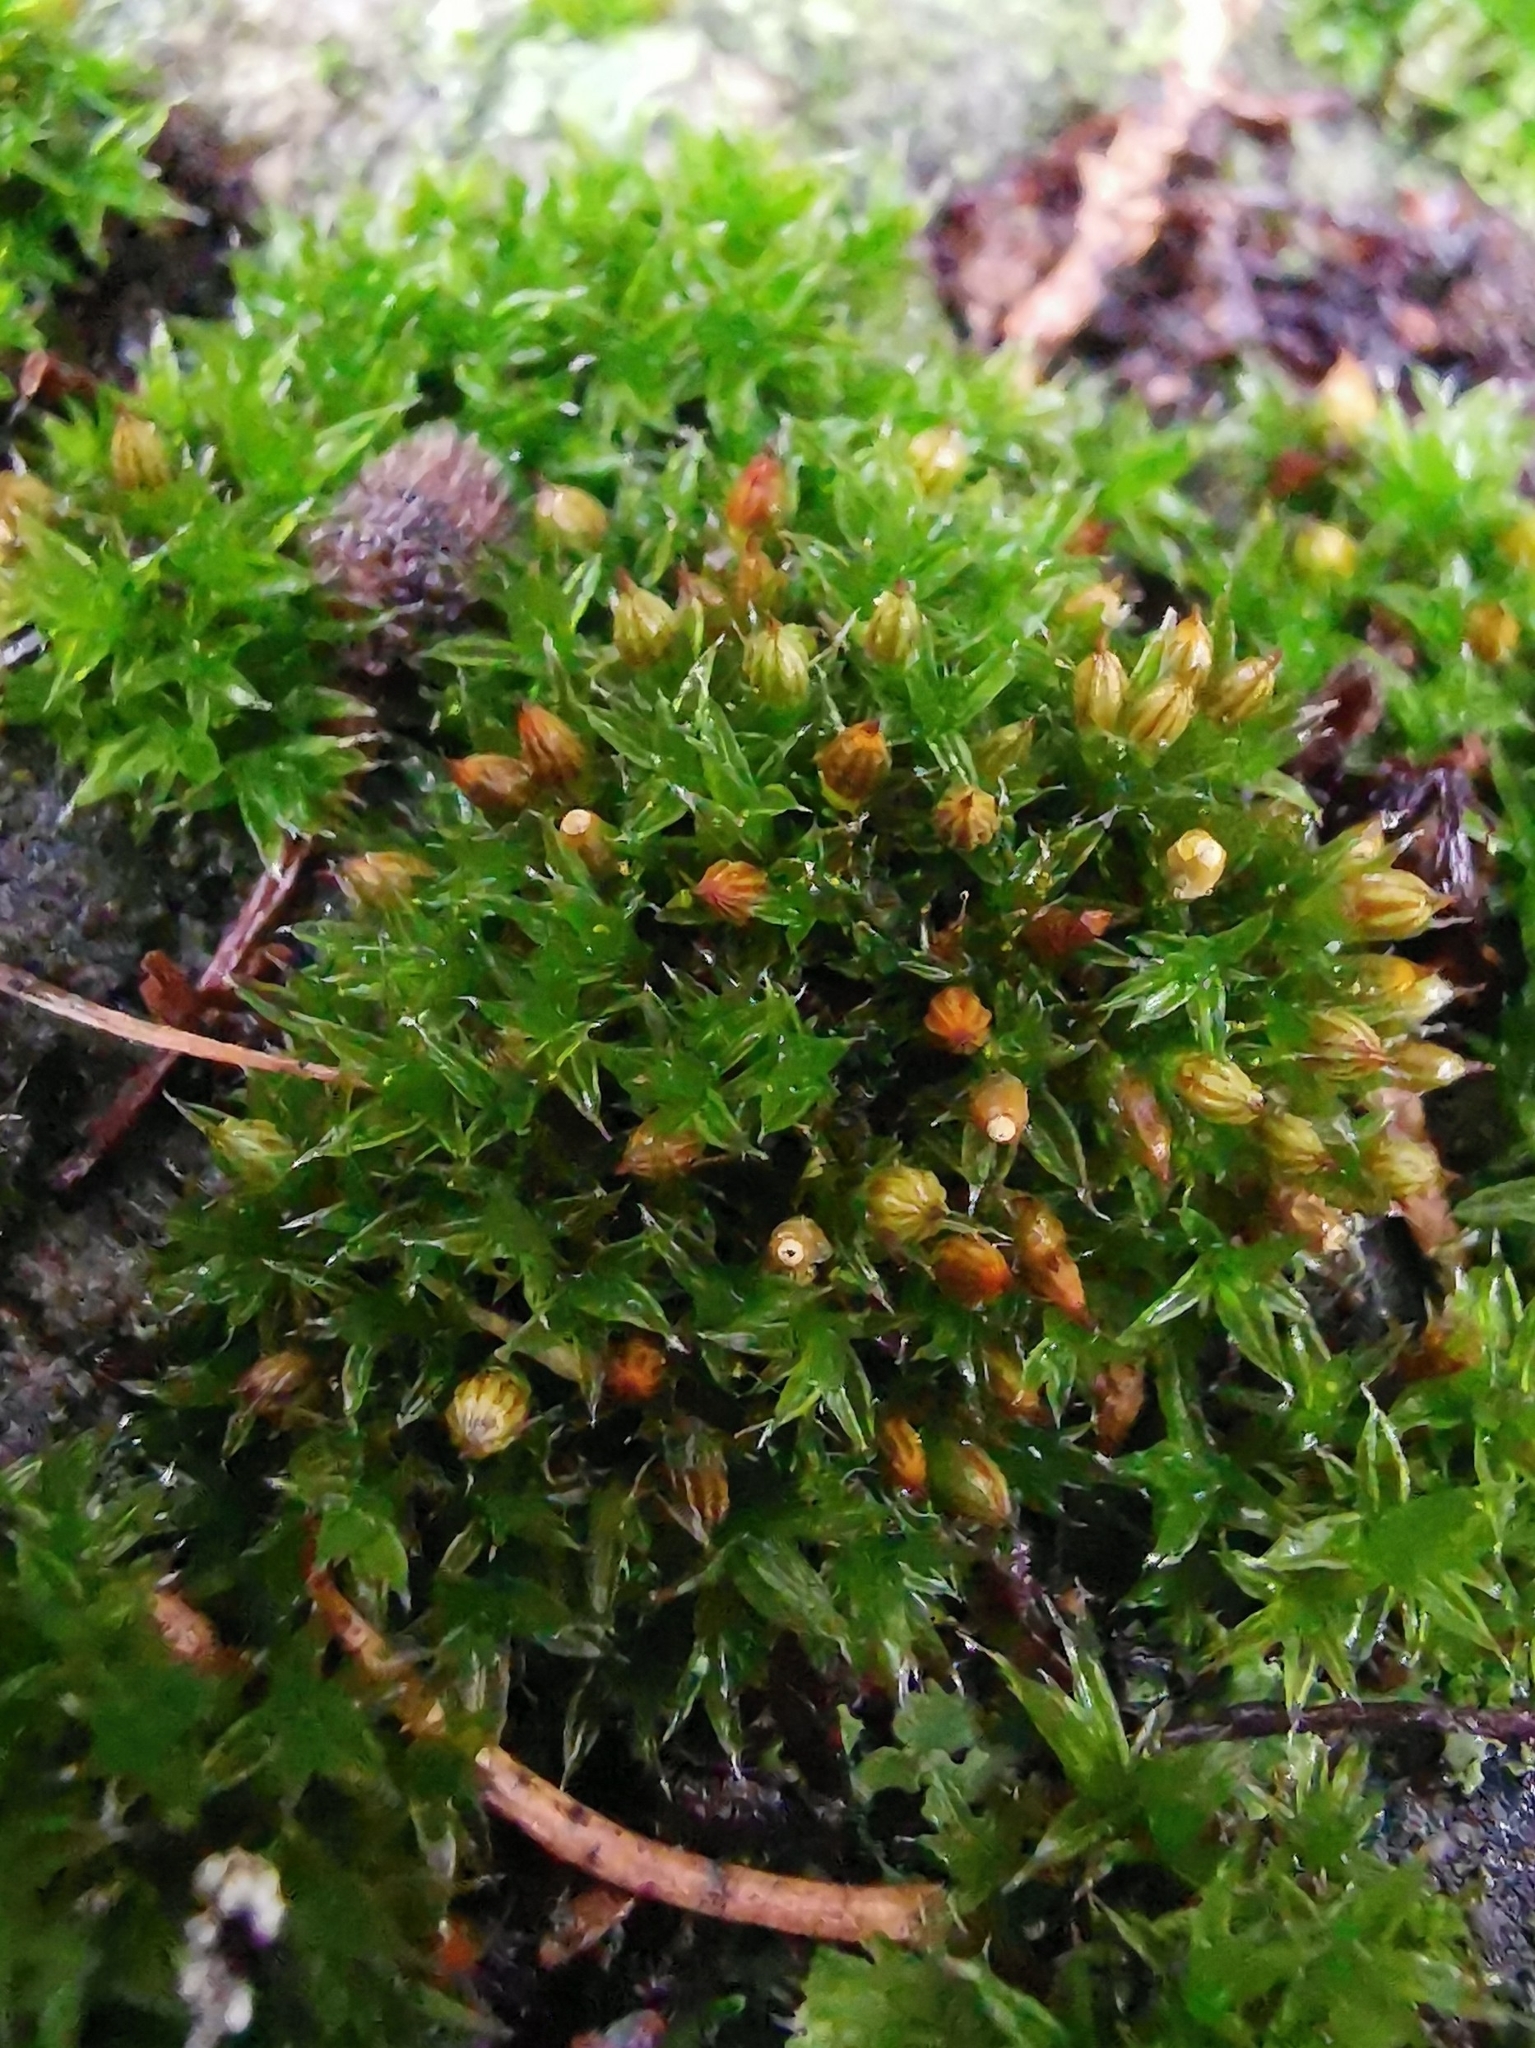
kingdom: Plantae
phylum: Bryophyta
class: Bryopsida
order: Orthotrichales
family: Orthotrichaceae
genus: Orthotrichum
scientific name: Orthotrichum diaphanum
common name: White-tipped bristle-moss
